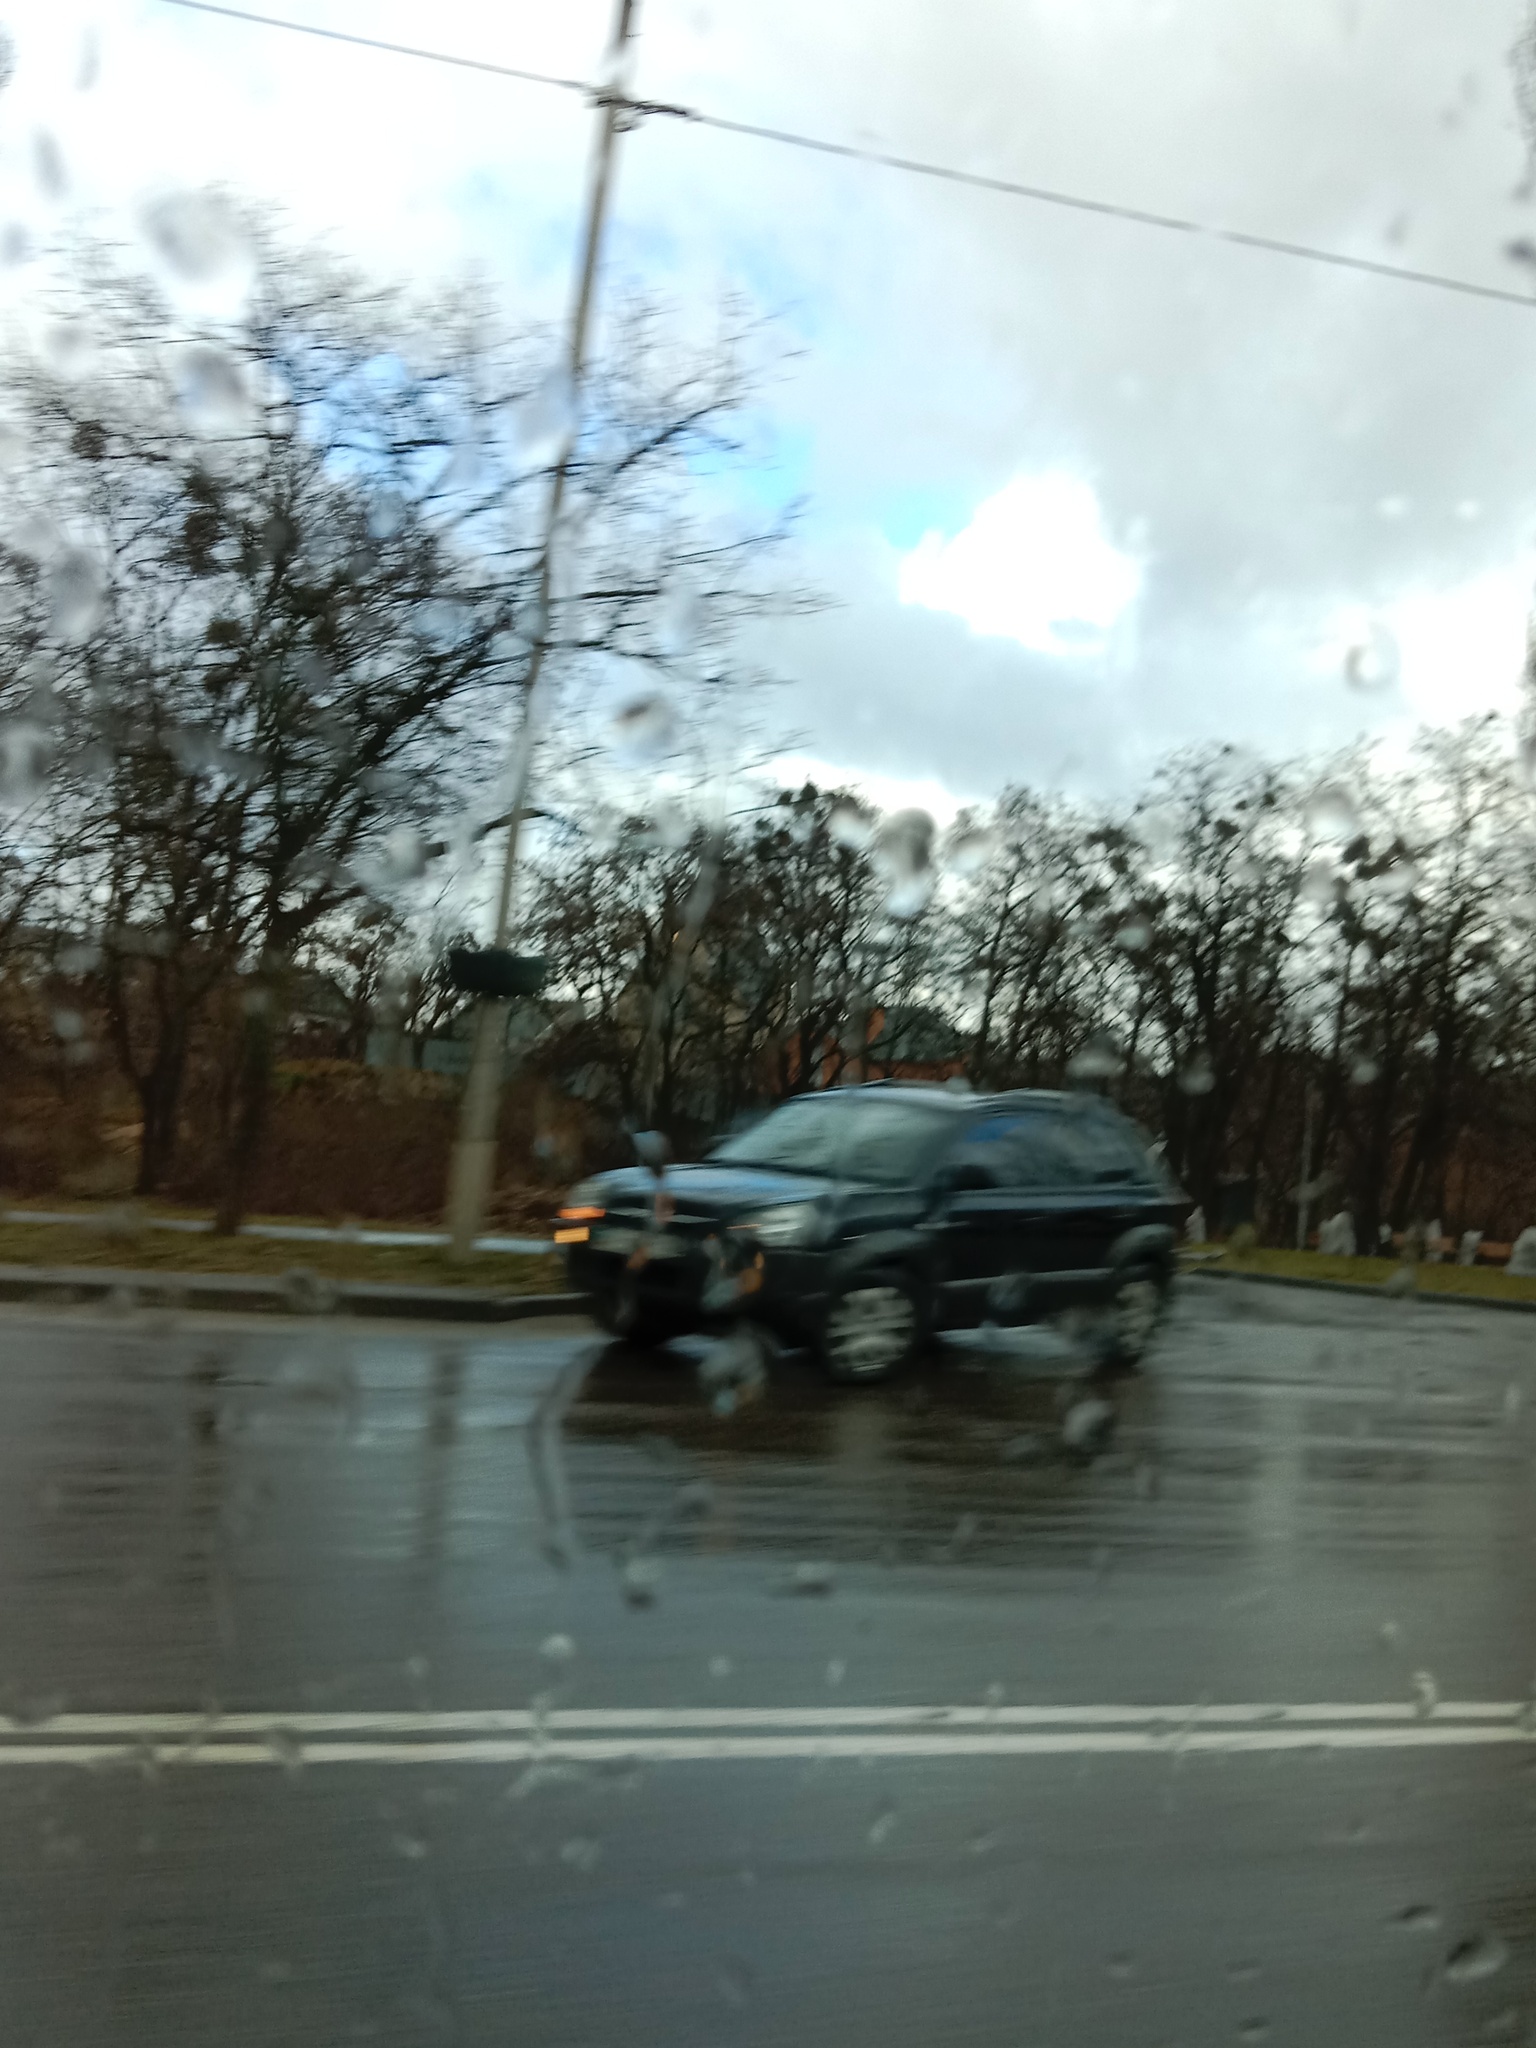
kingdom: Plantae
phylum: Tracheophyta
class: Magnoliopsida
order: Santalales
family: Viscaceae
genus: Viscum
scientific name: Viscum album
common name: Mistletoe
